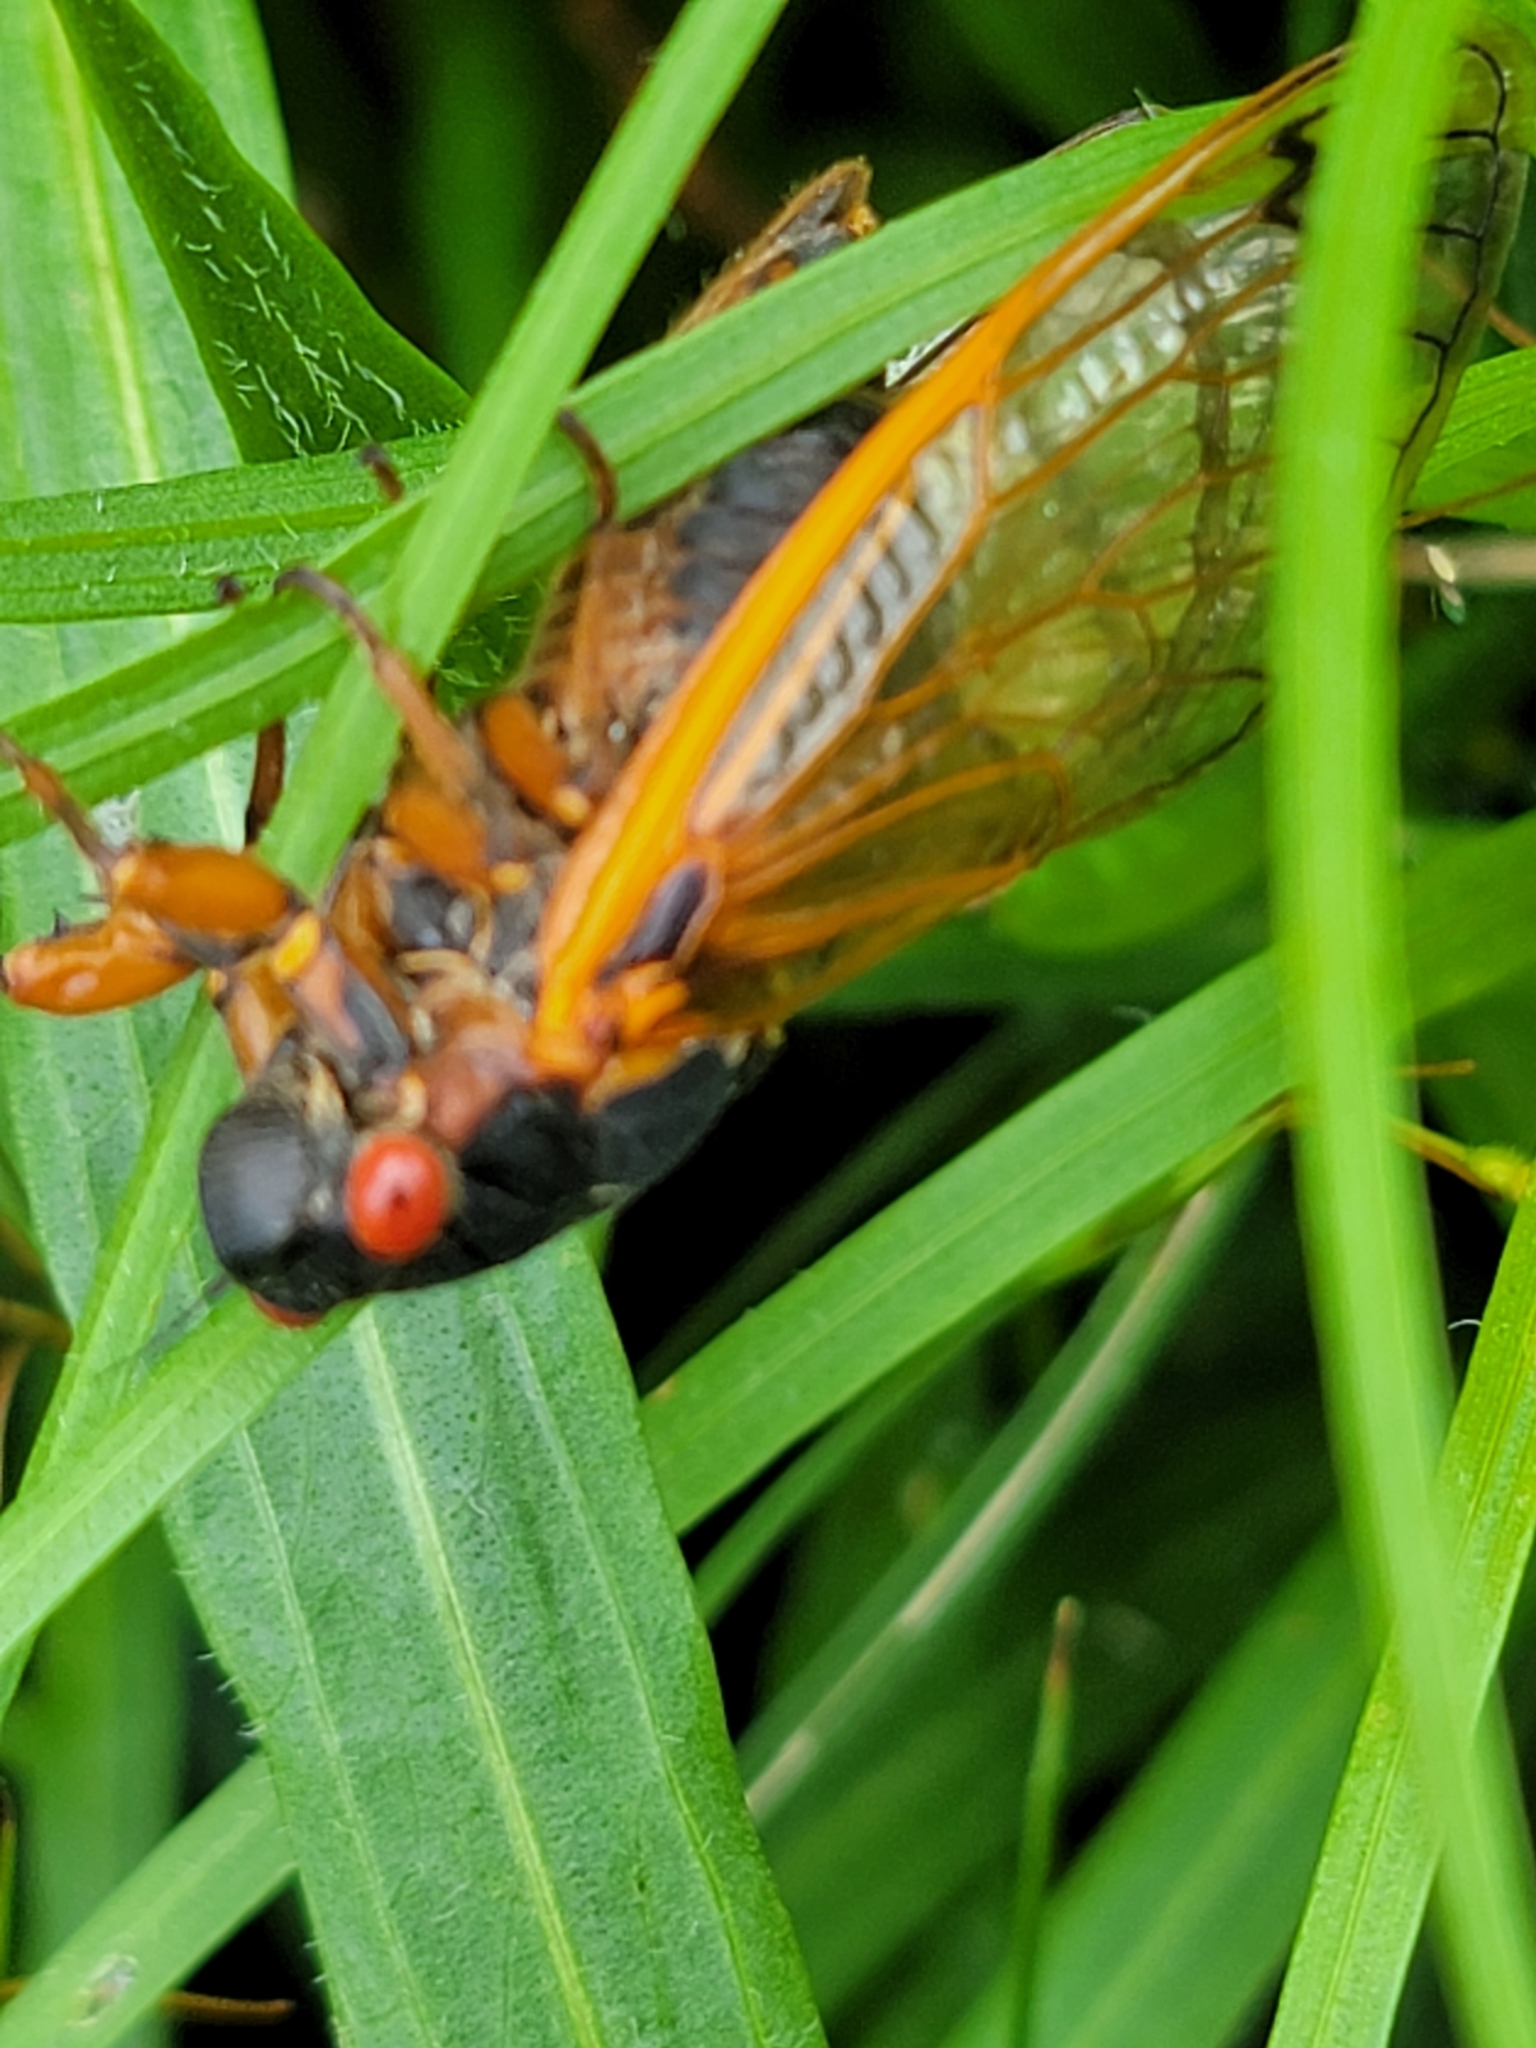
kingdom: Animalia
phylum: Arthropoda
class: Insecta
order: Hemiptera
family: Cicadidae
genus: Magicicada
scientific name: Magicicada septendecim
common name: Periodical cicada
